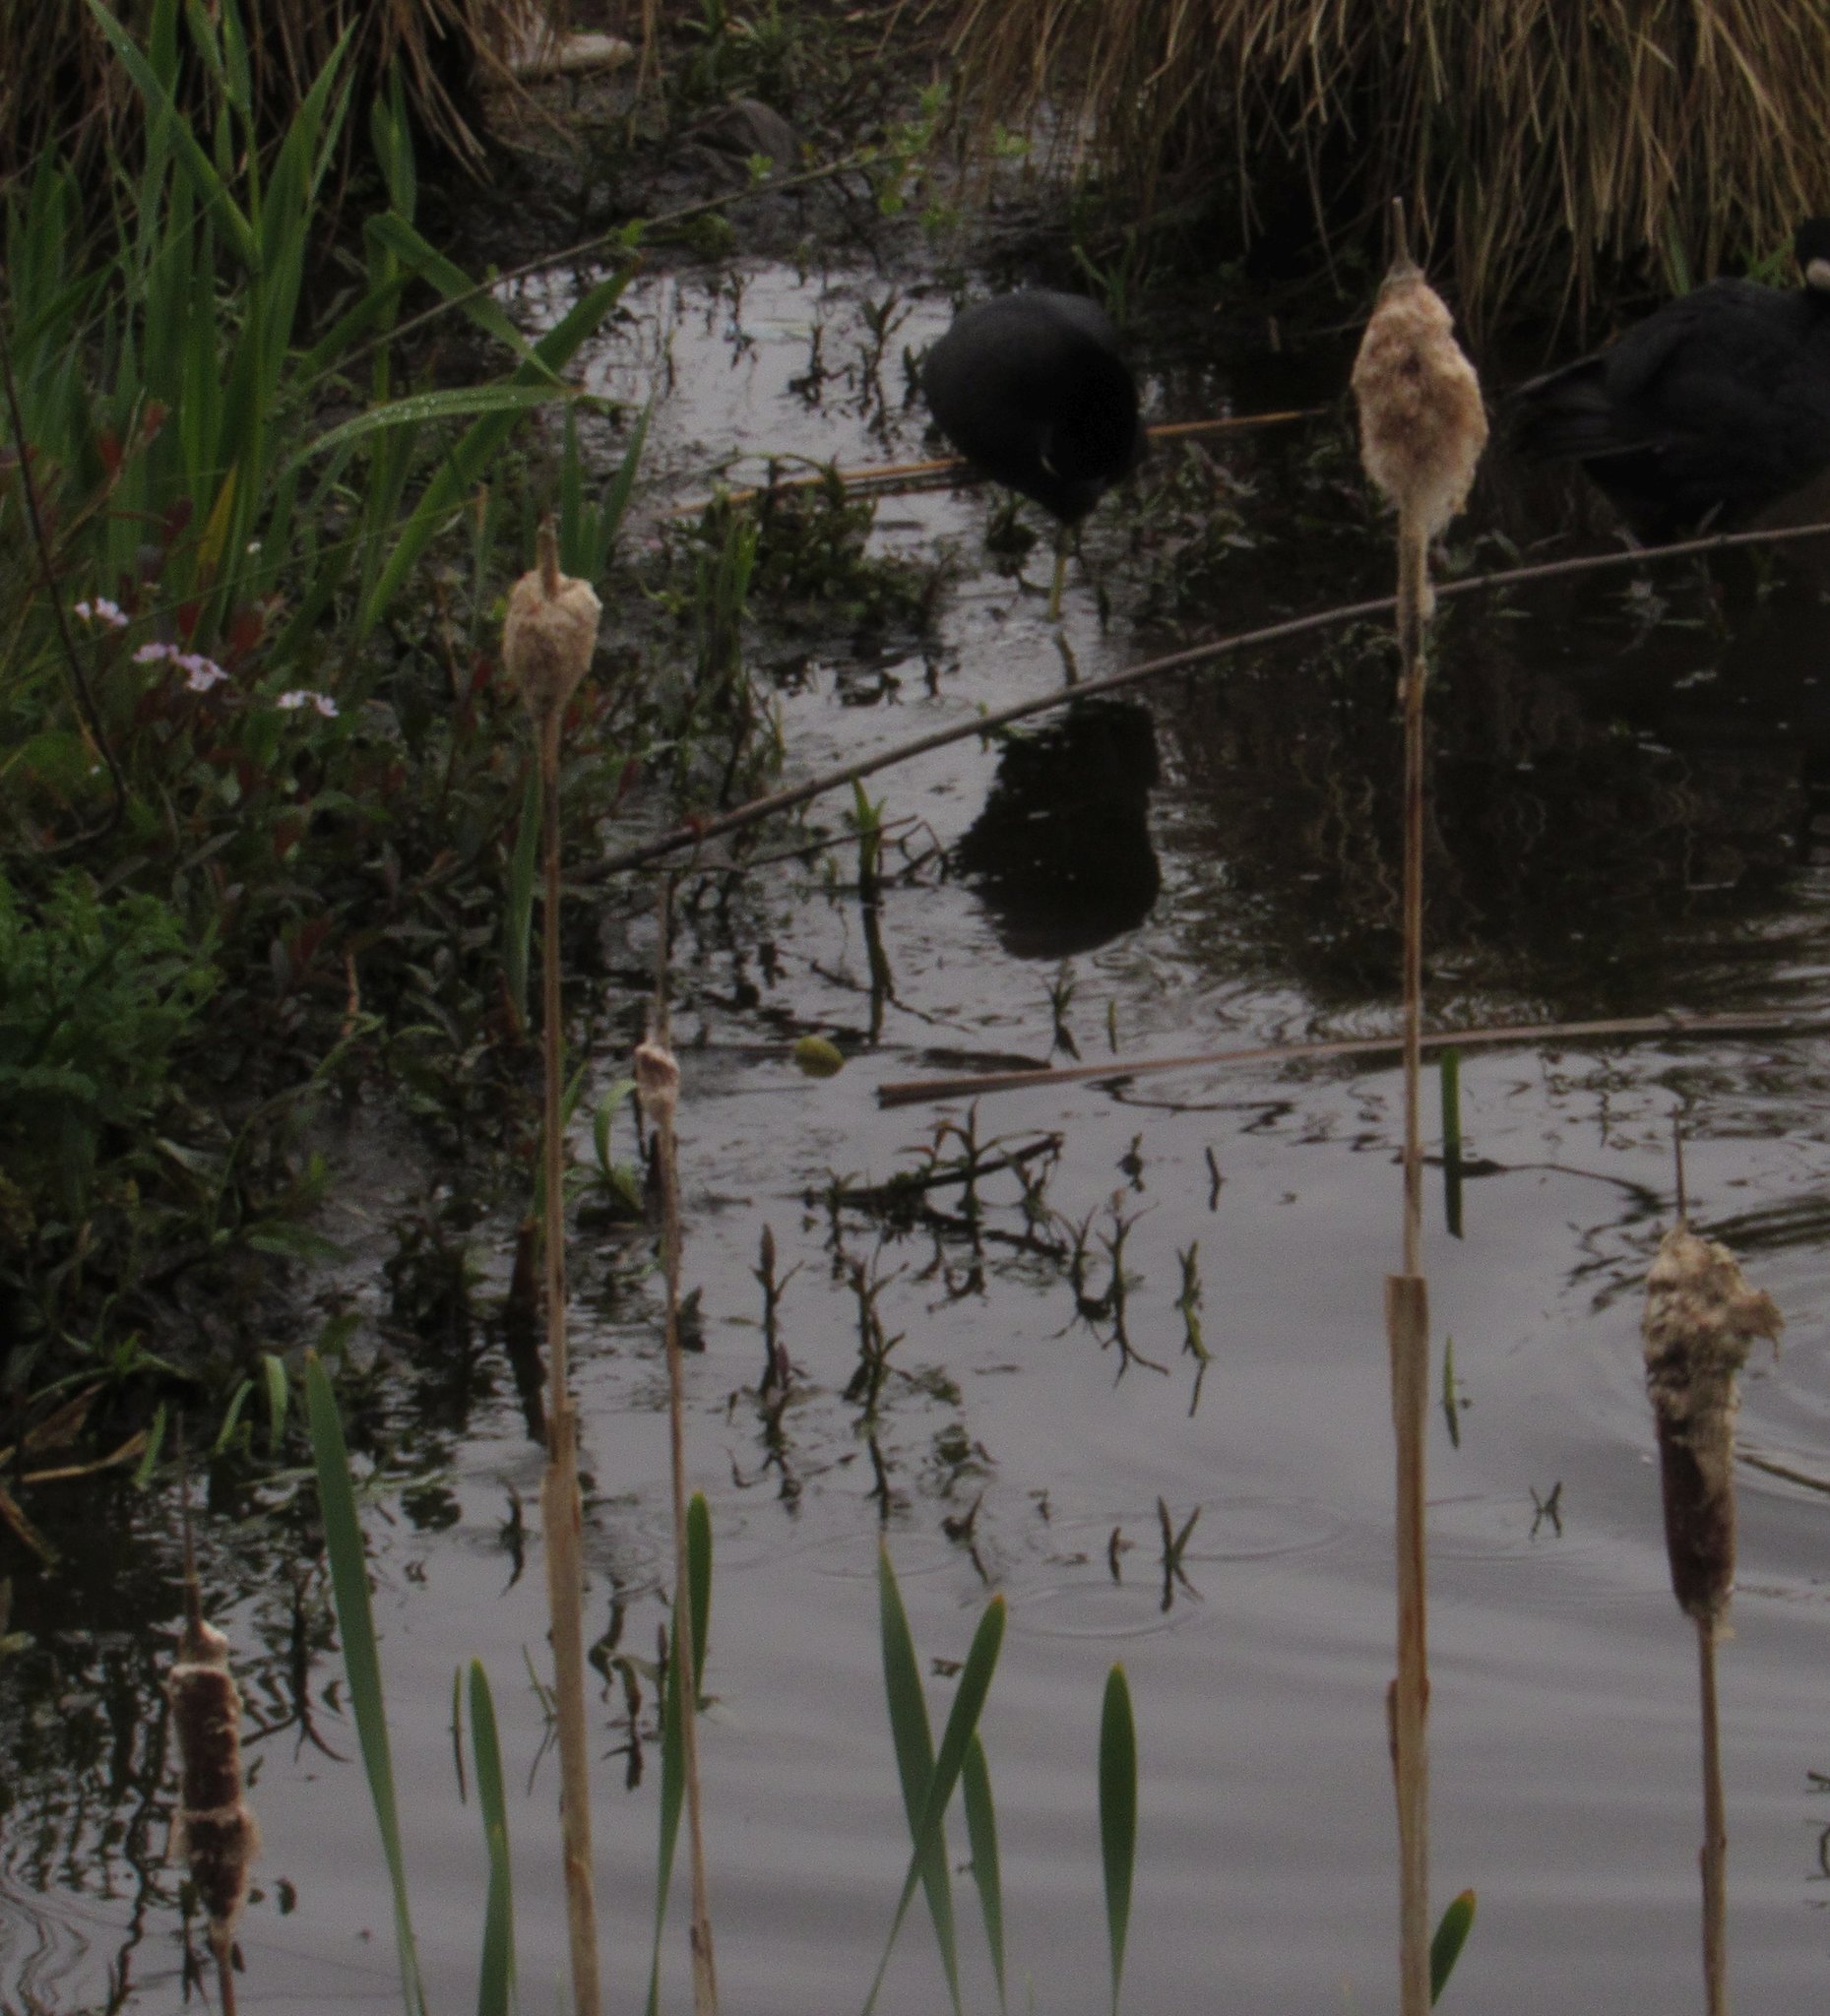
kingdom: Plantae
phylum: Tracheophyta
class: Liliopsida
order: Poales
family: Typhaceae
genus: Typha
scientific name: Typha latifolia
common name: Broadleaf cattail
